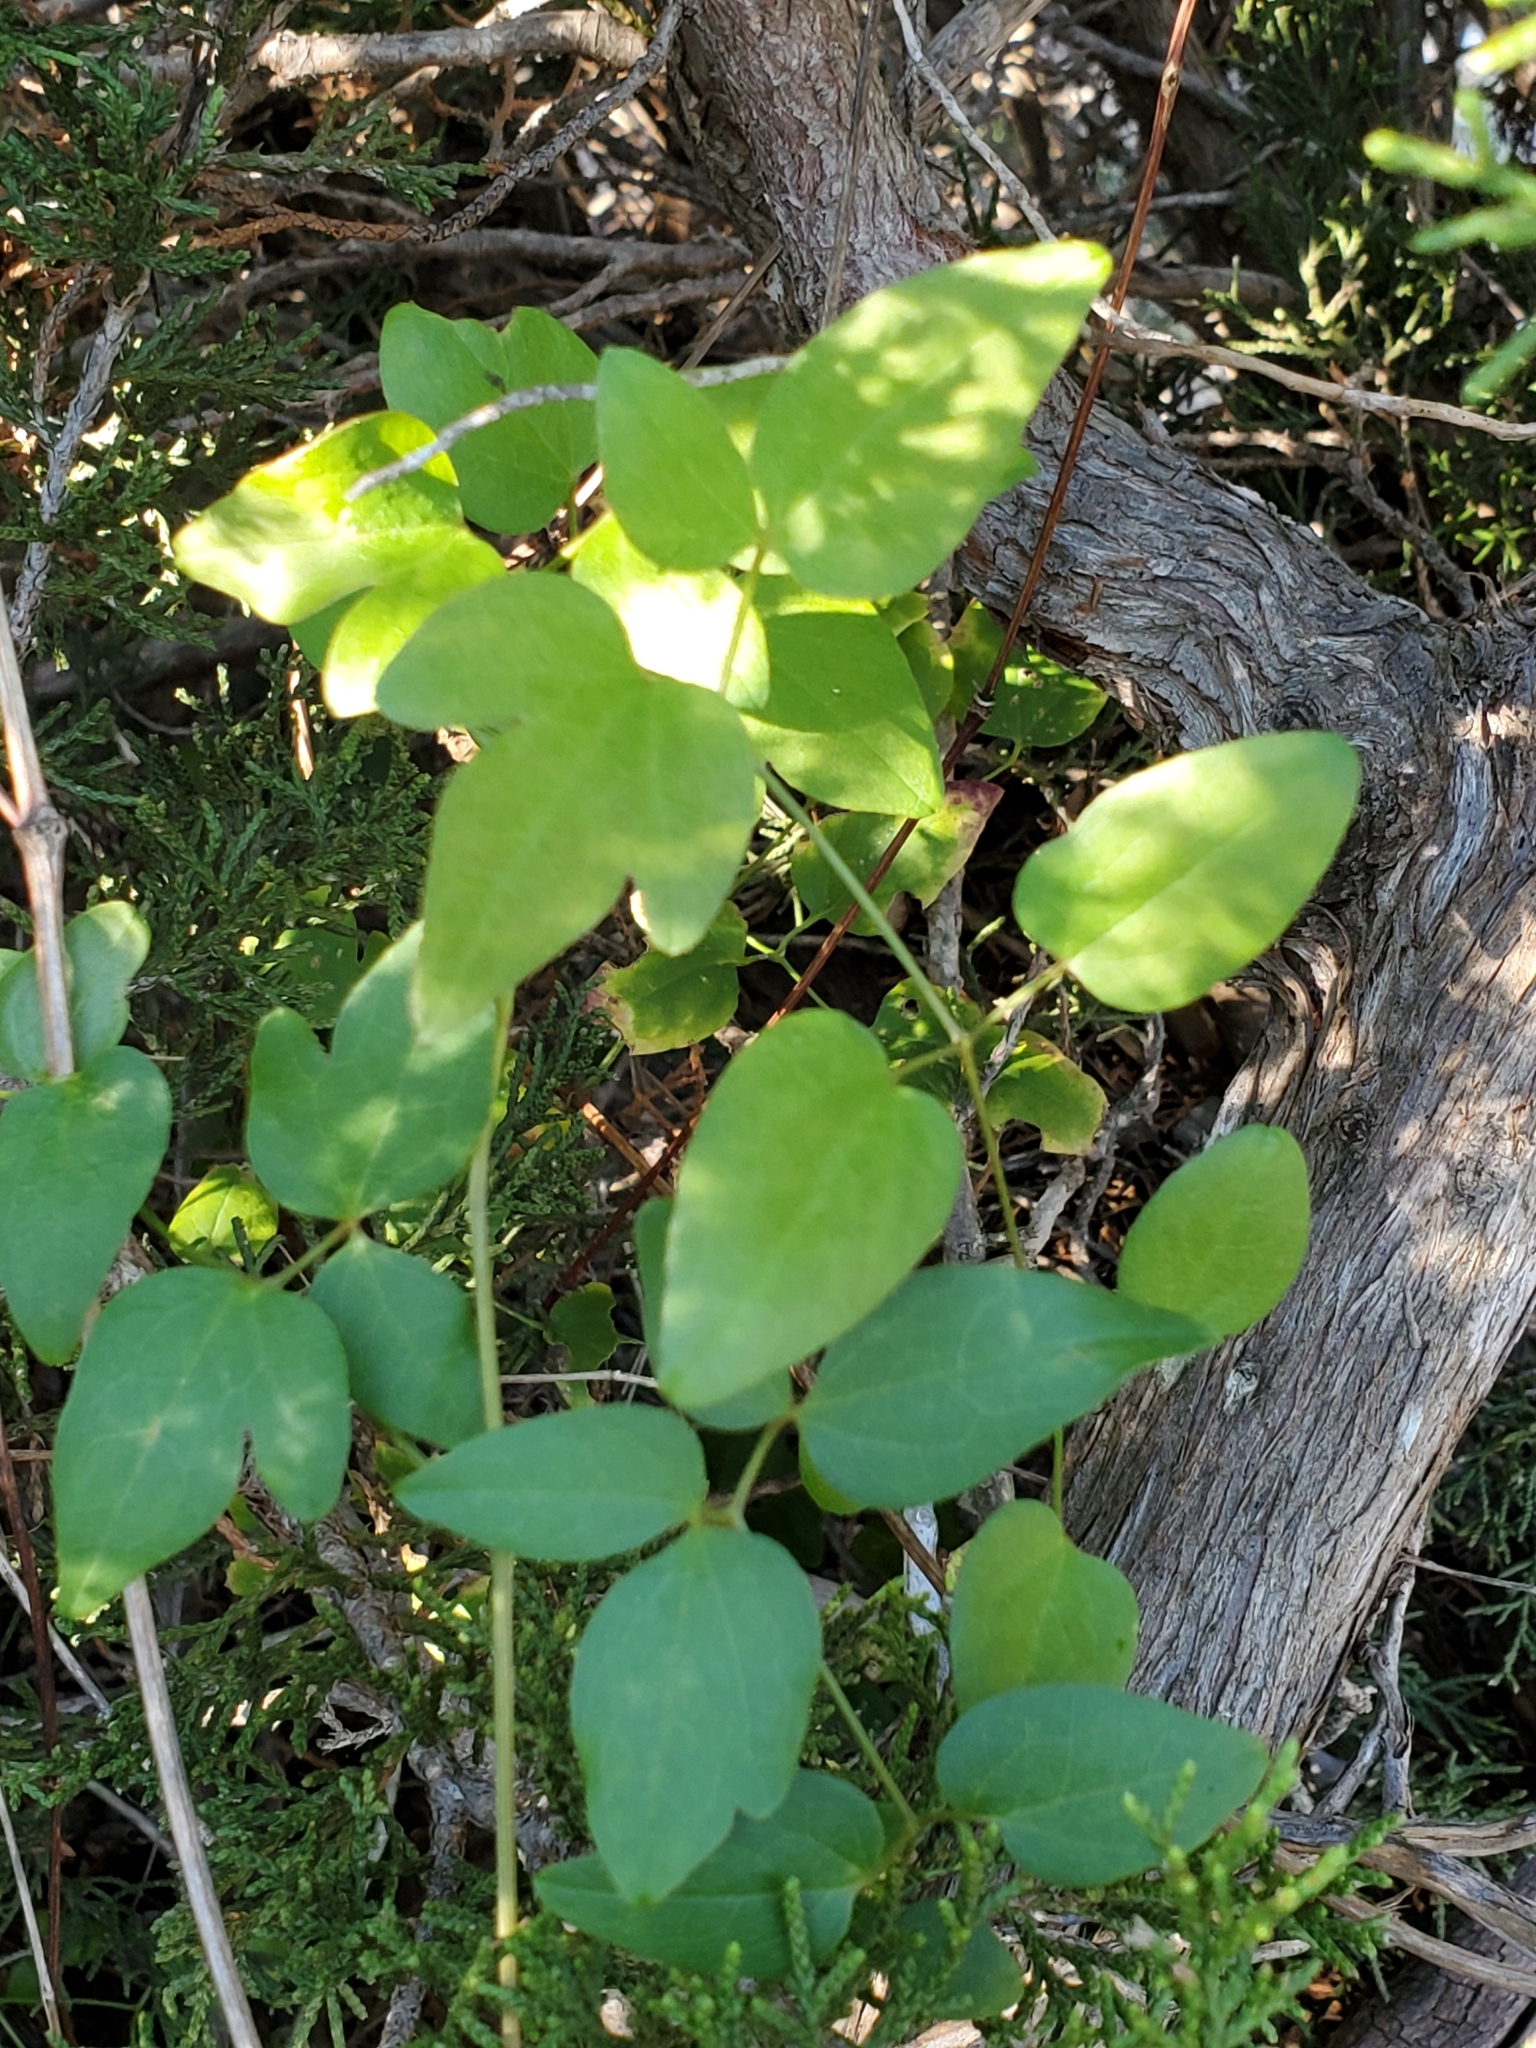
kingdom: Plantae
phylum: Tracheophyta
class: Magnoliopsida
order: Ranunculales
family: Ranunculaceae
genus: Clematis
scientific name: Clematis pitcheri
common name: Bellflower clematis
